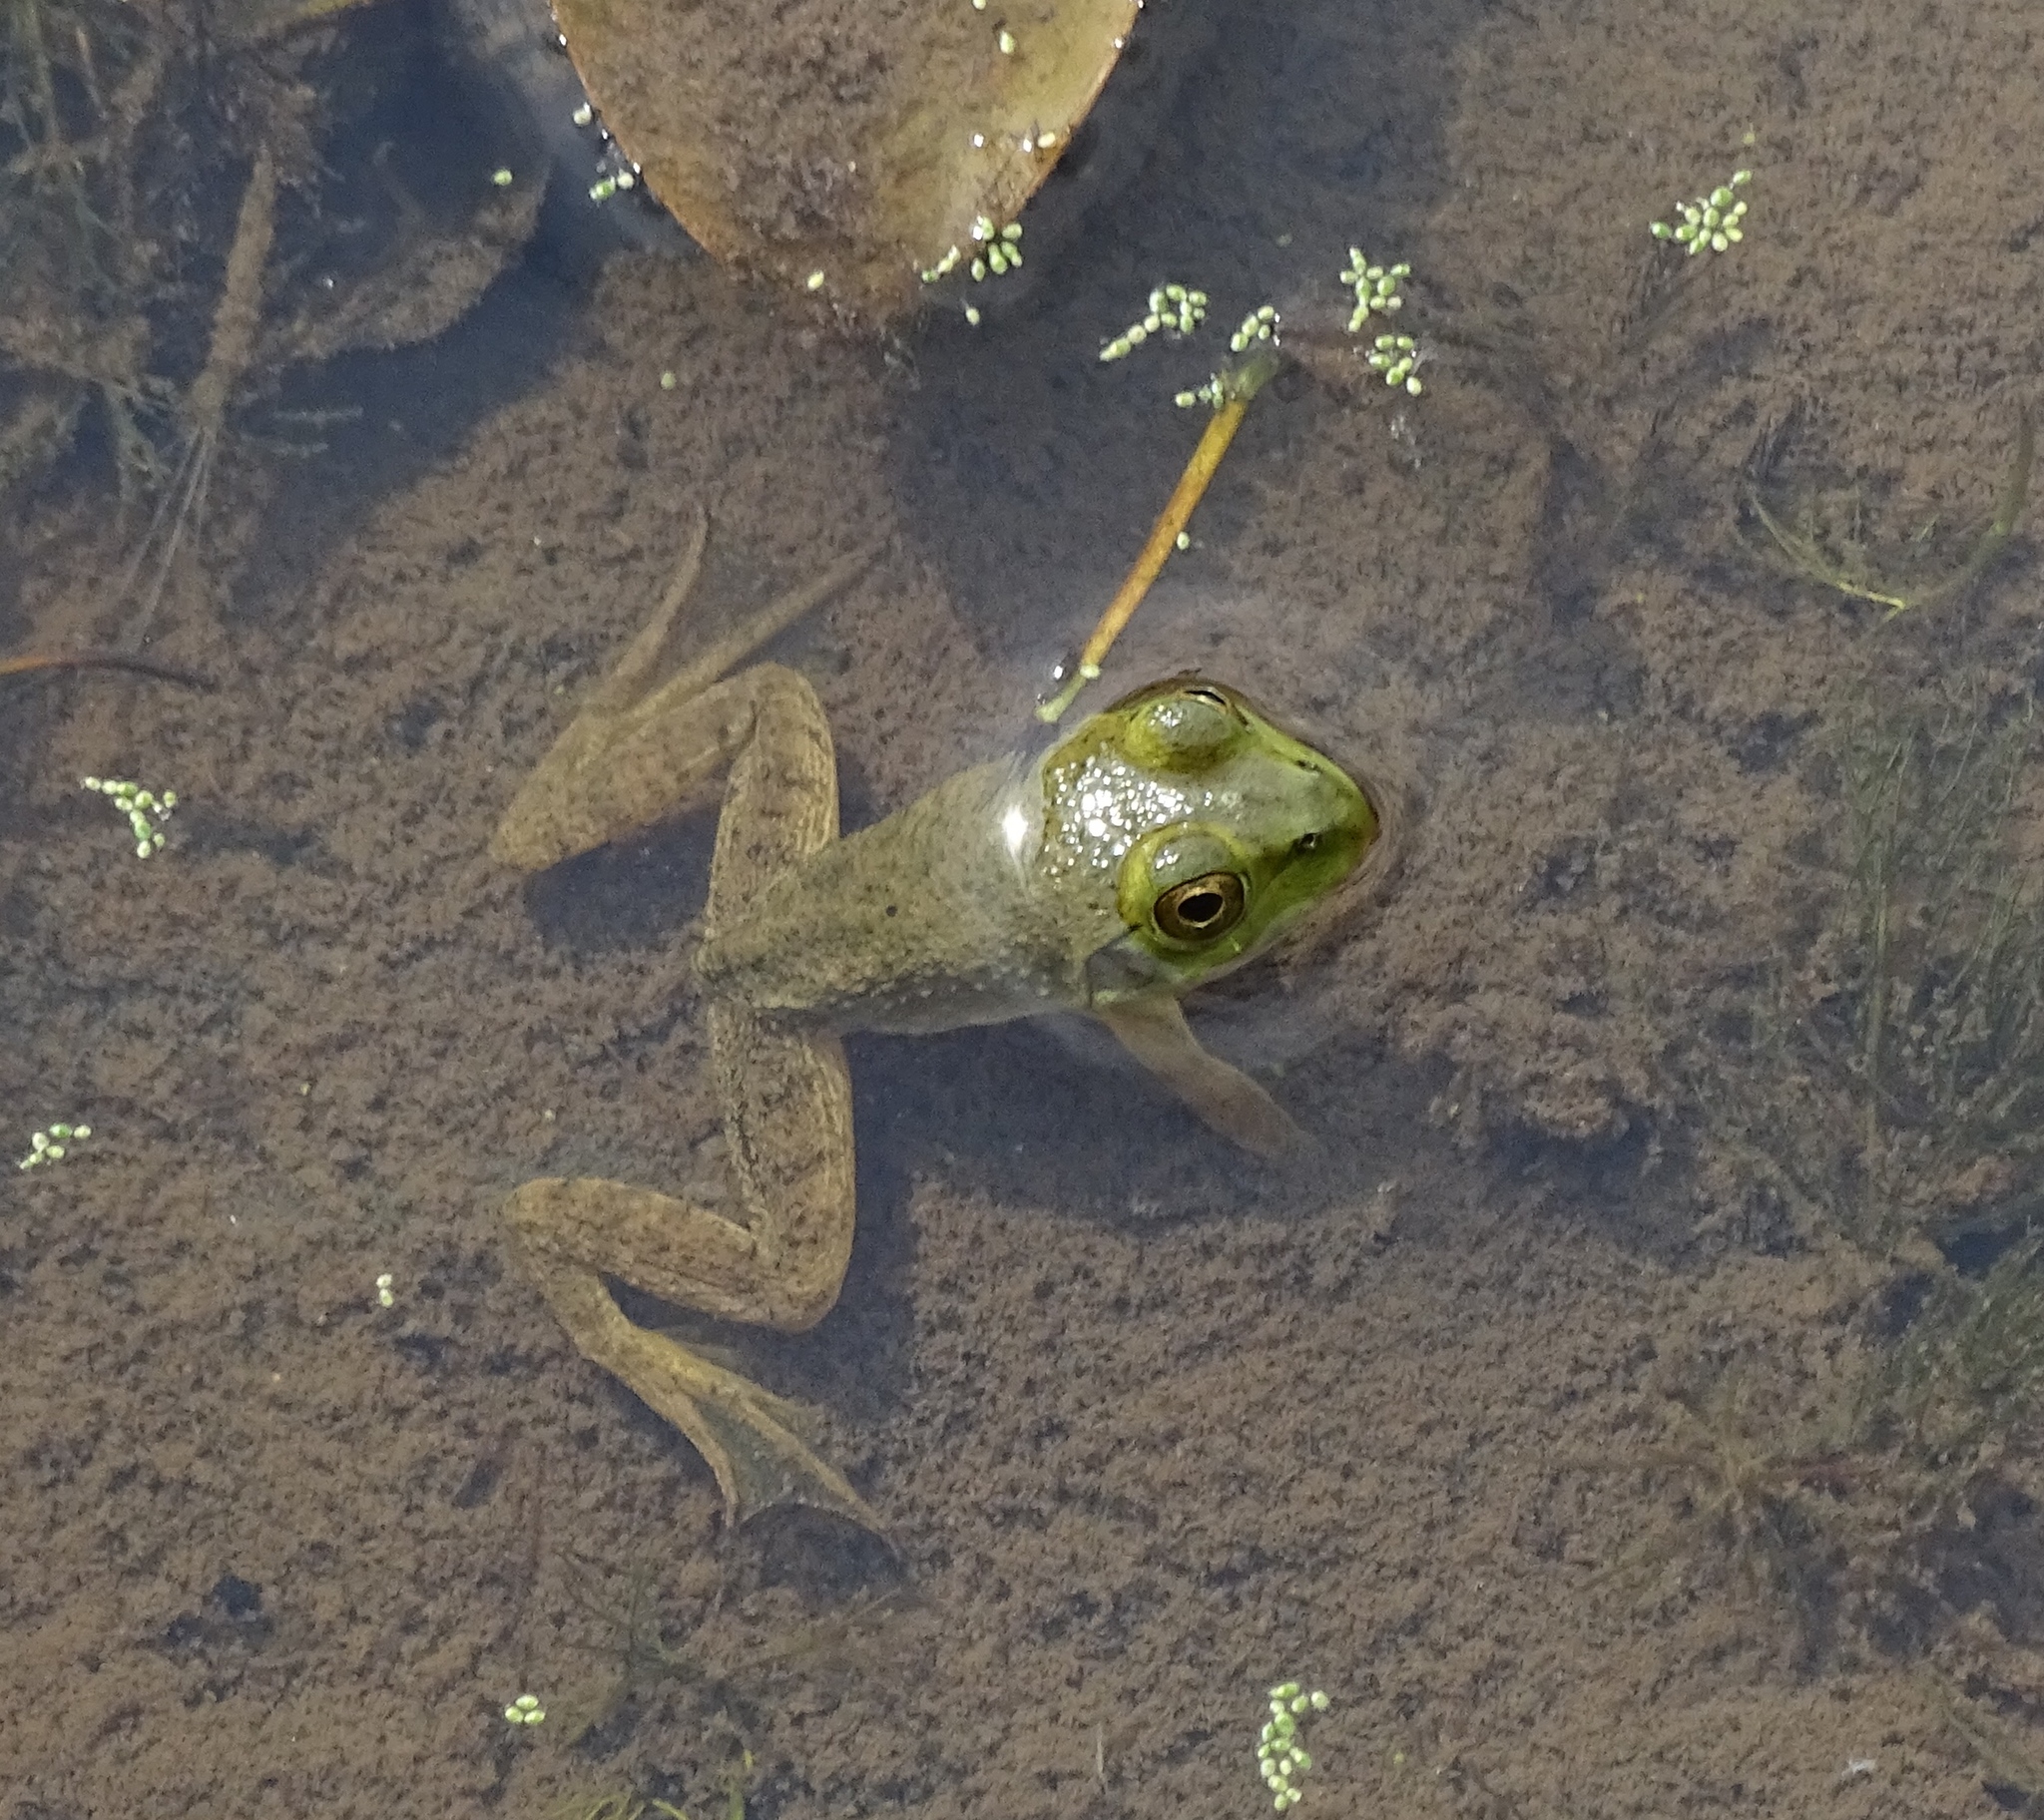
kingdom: Animalia
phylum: Chordata
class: Amphibia
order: Anura
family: Ranidae
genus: Lithobates
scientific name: Lithobates catesbeianus
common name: American bullfrog
